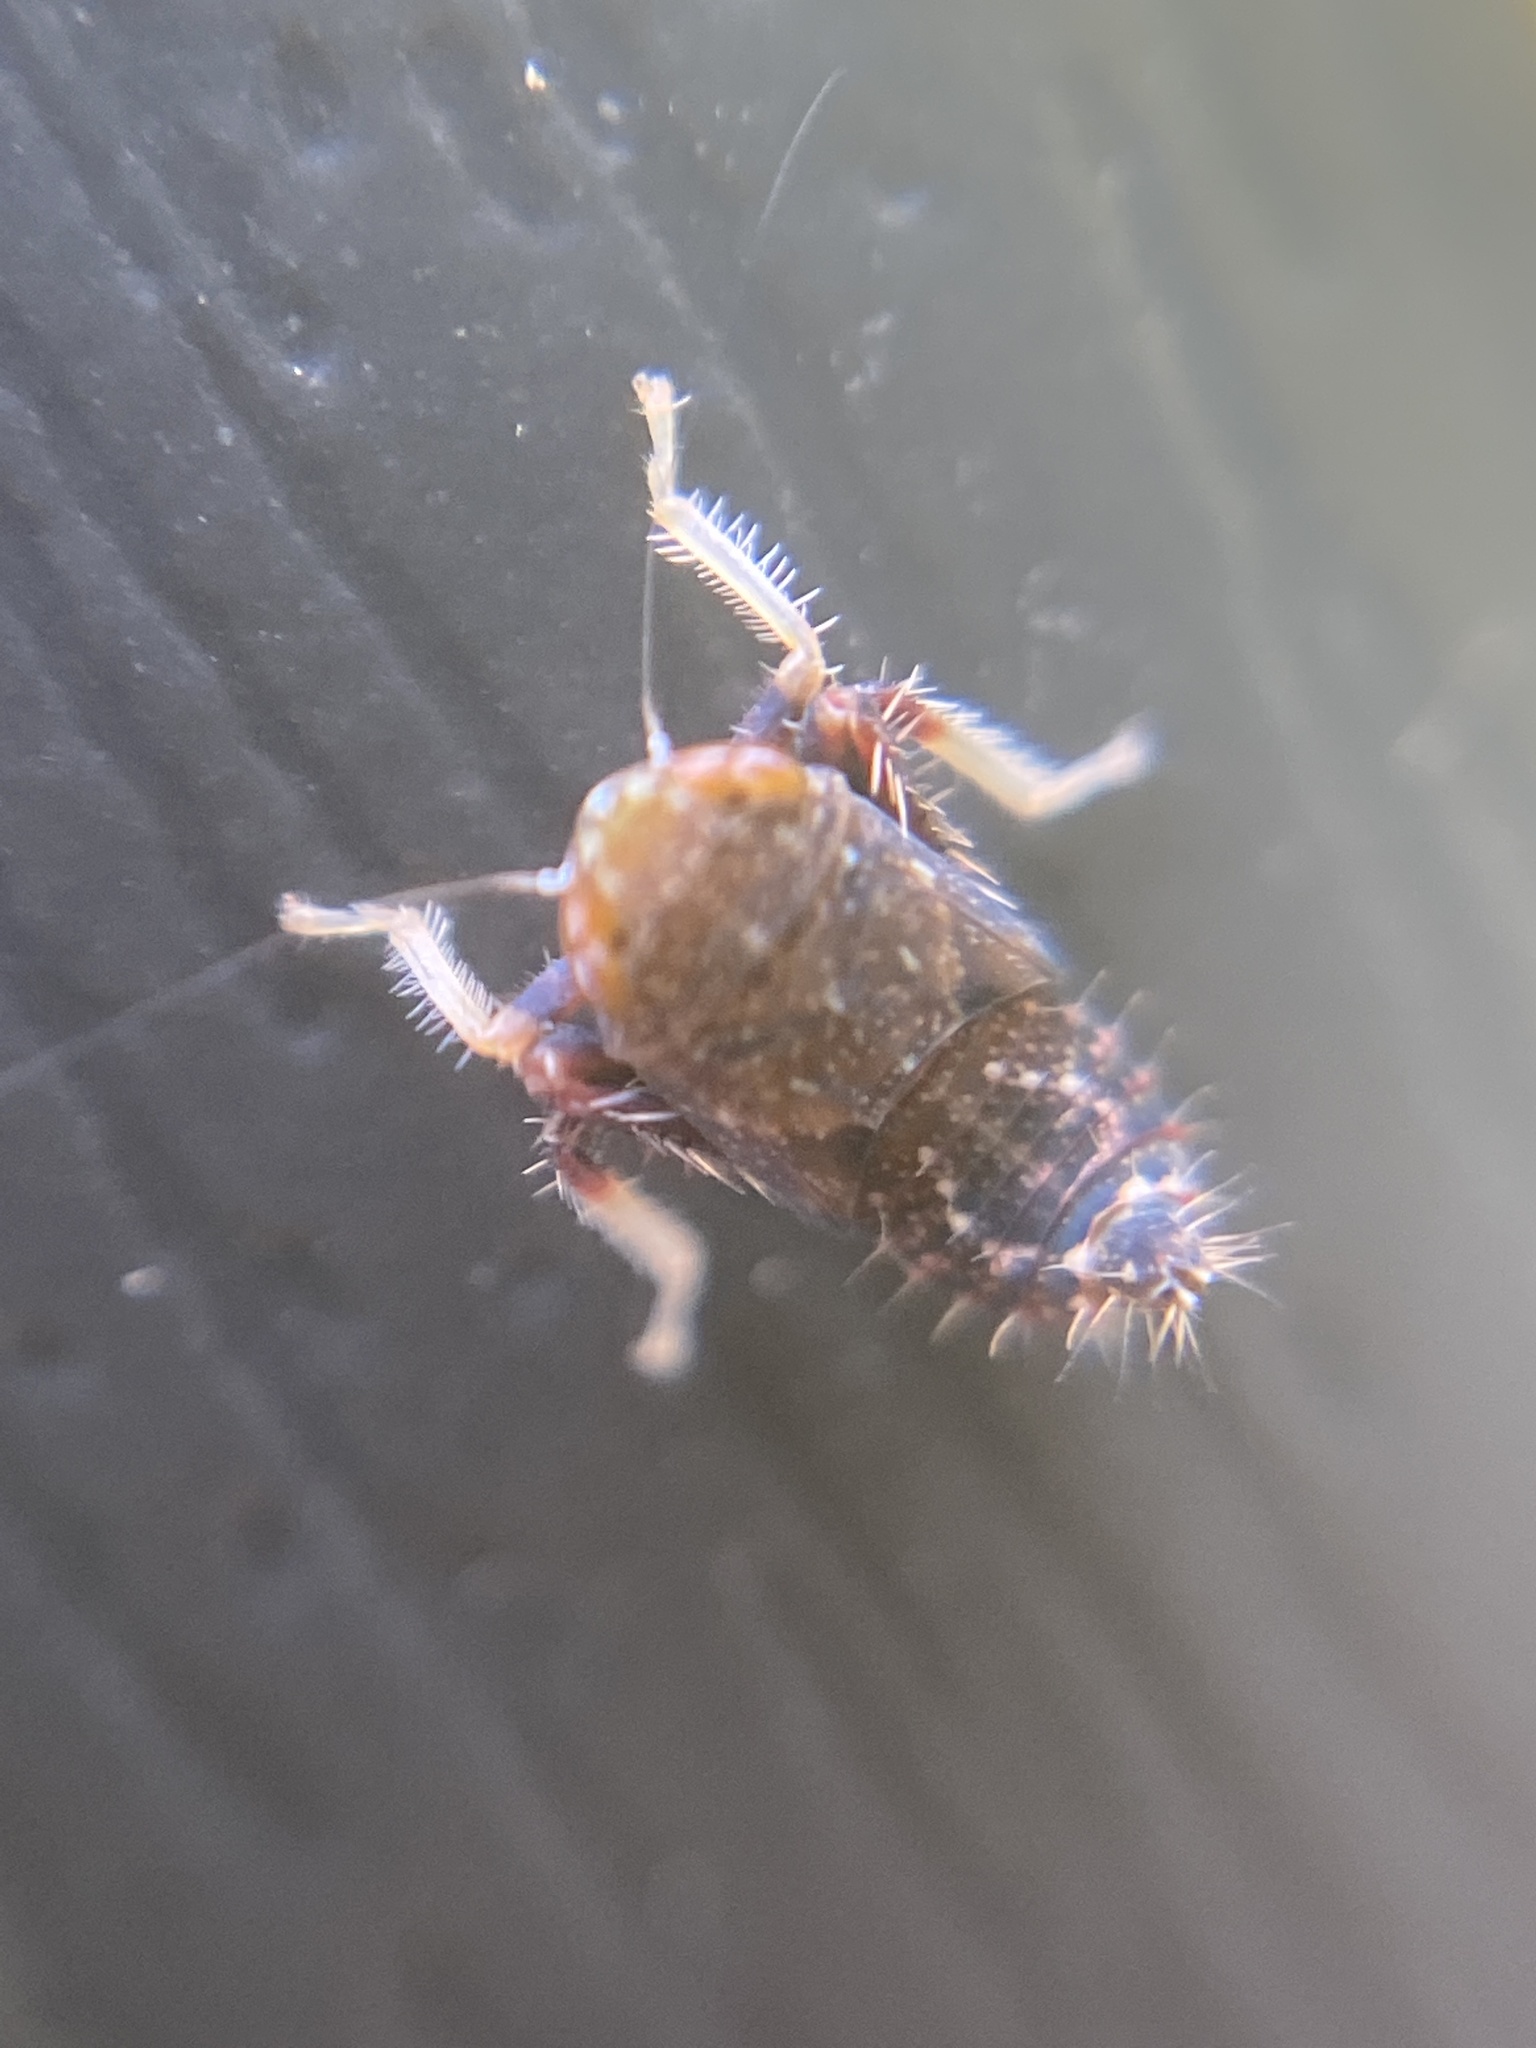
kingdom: Animalia
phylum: Arthropoda
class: Insecta
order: Hemiptera
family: Cicadellidae
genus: Orientus
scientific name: Orientus ishidae
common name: Japanese leafhopper
